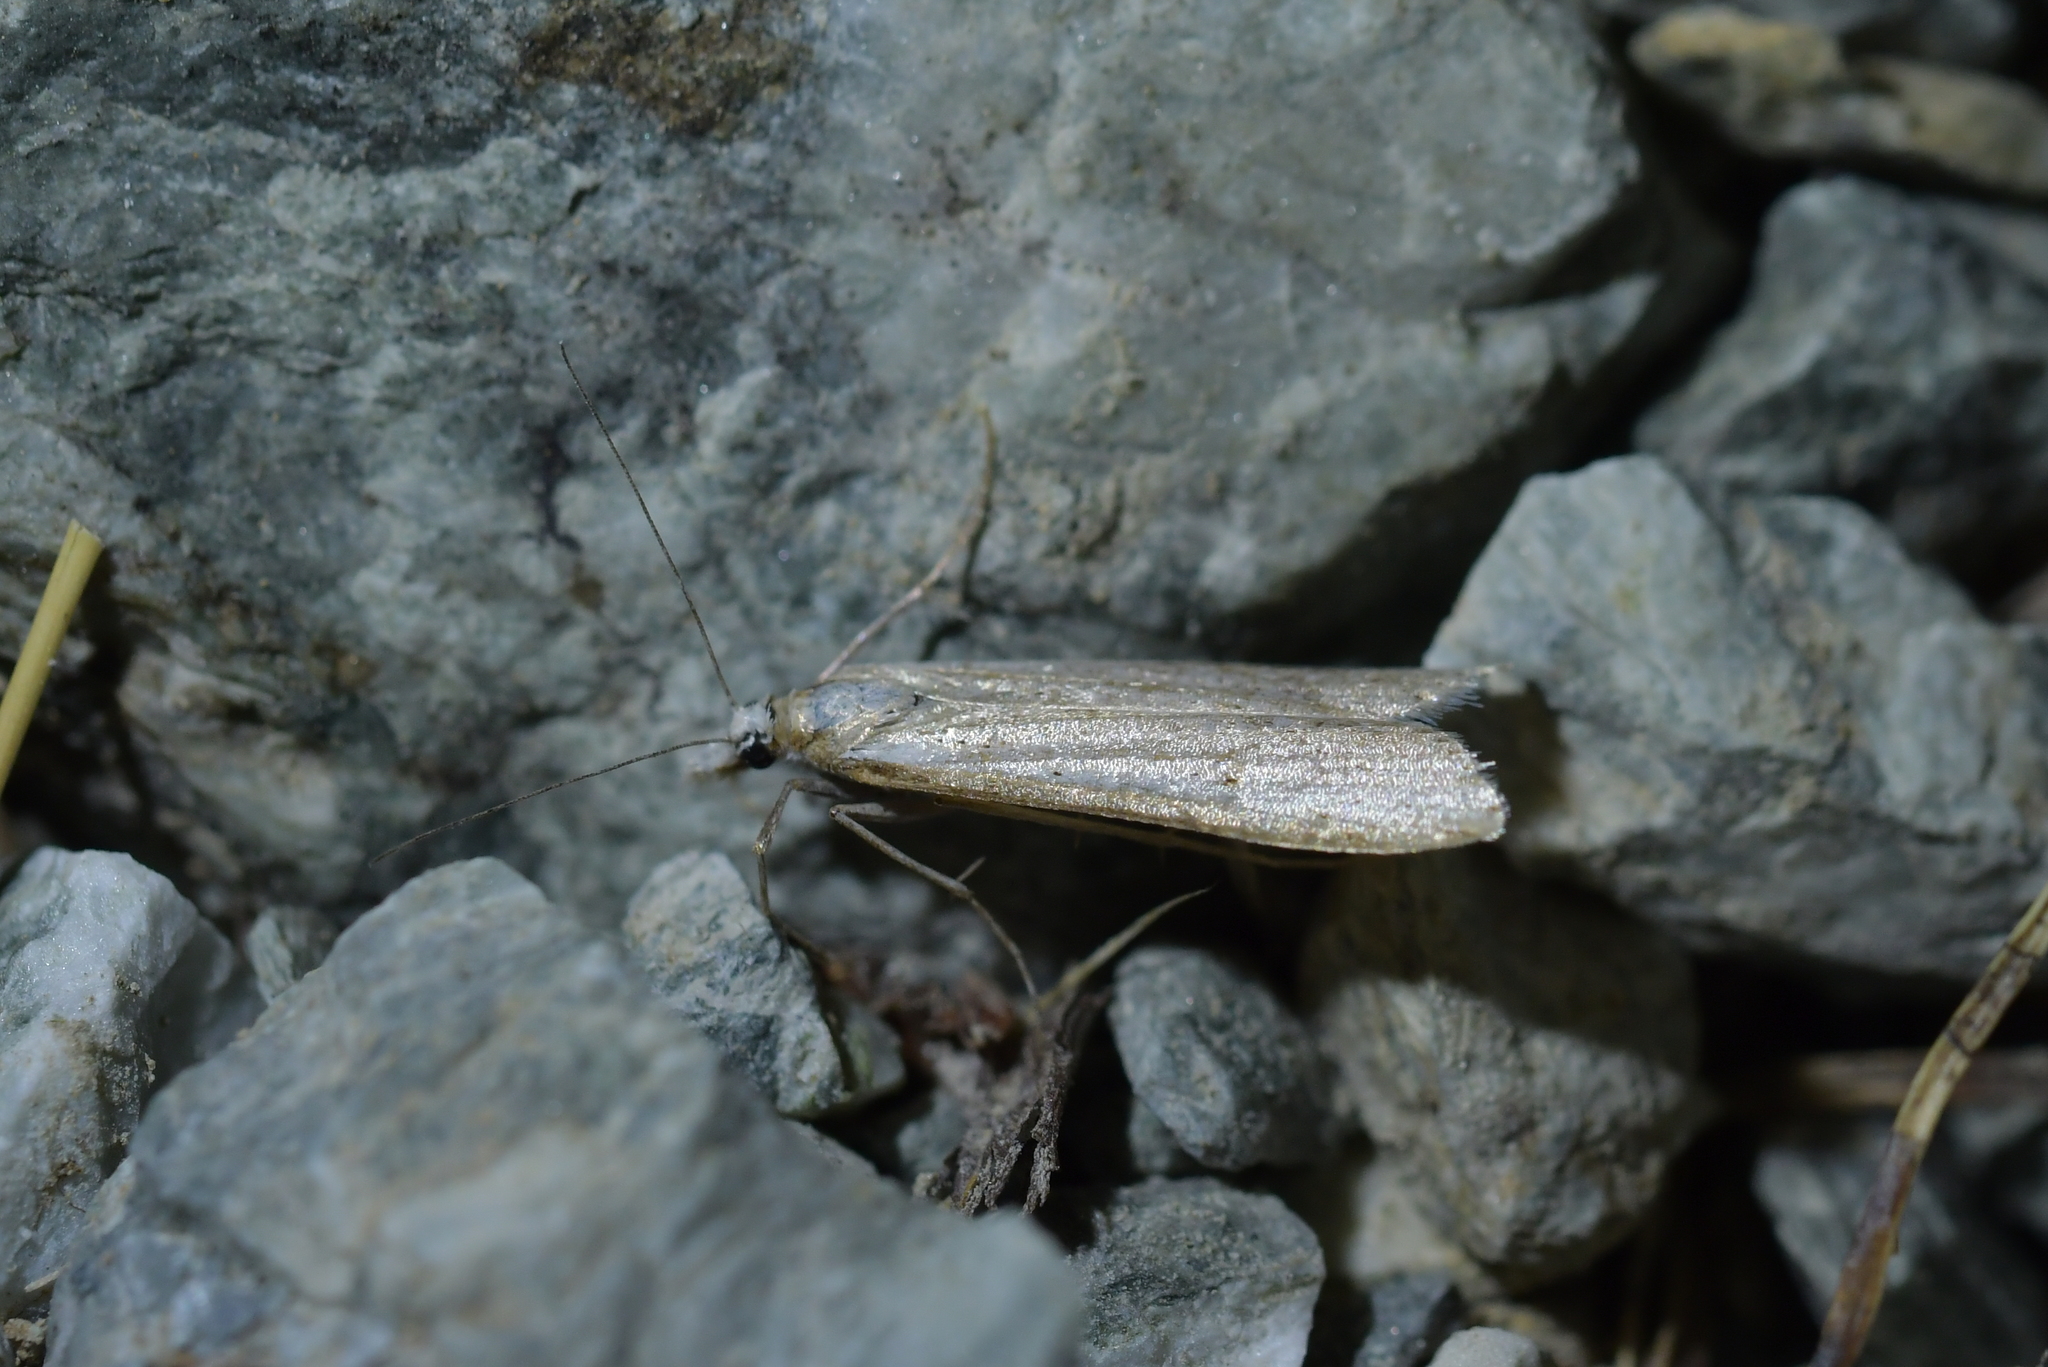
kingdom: Animalia
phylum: Arthropoda
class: Insecta
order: Lepidoptera
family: Crambidae
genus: Scoparia
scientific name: Scoparia niphospora
